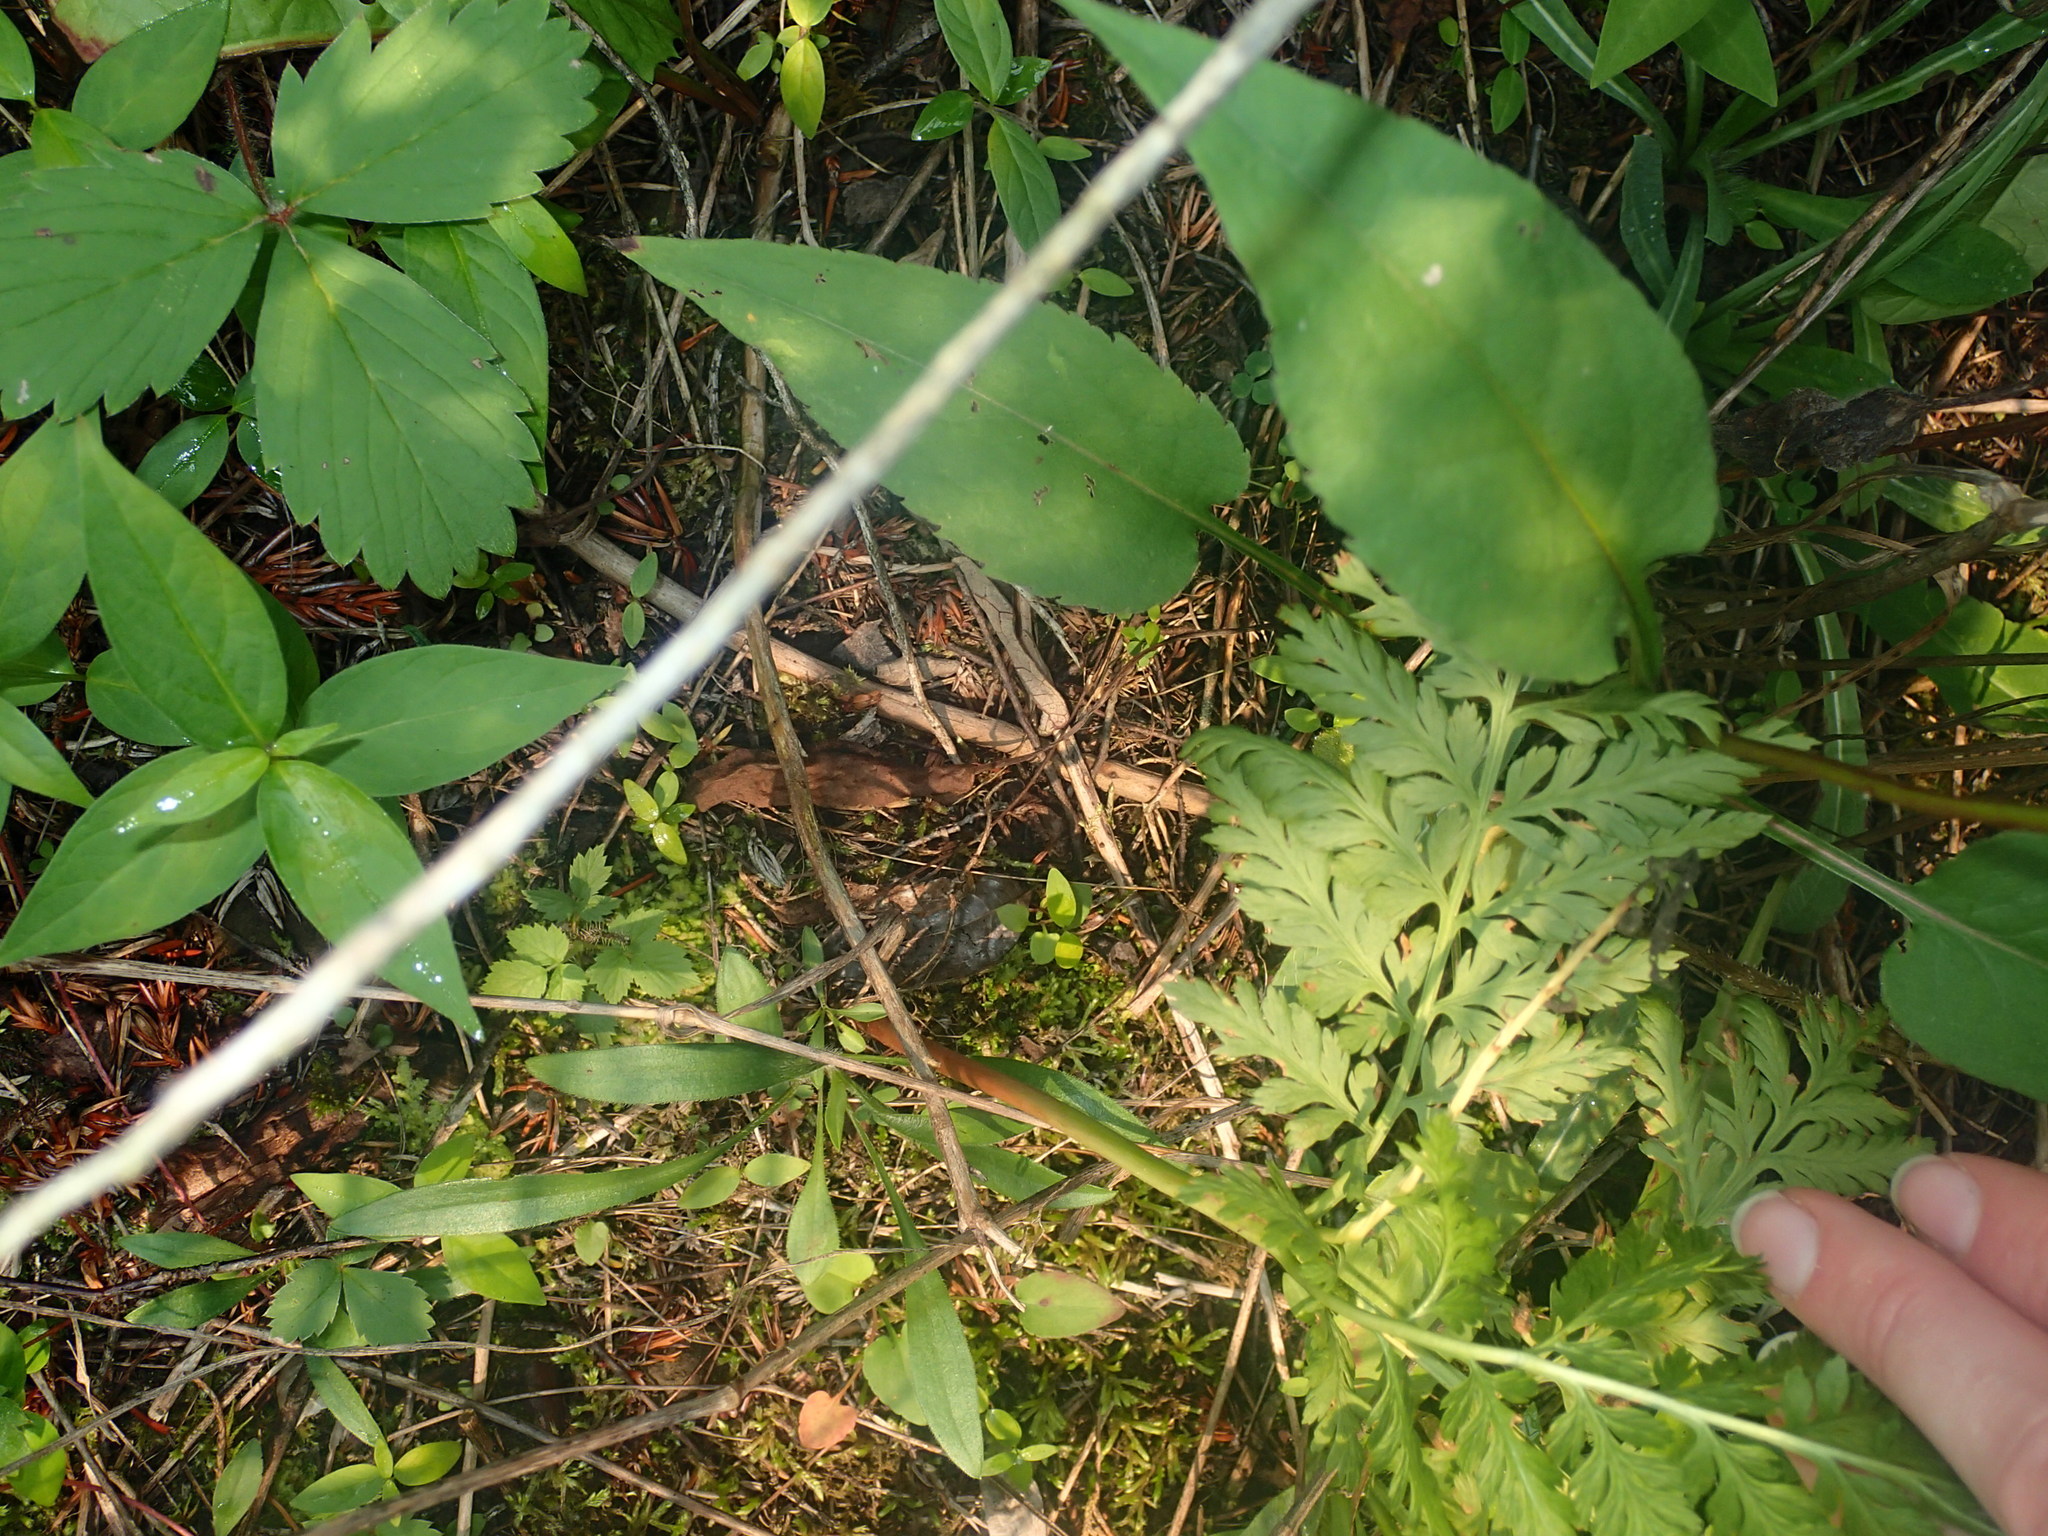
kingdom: Plantae
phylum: Tracheophyta
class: Polypodiopsida
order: Ophioglossales
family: Ophioglossaceae
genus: Botrypus
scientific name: Botrypus virginianus
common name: Common grapefern
